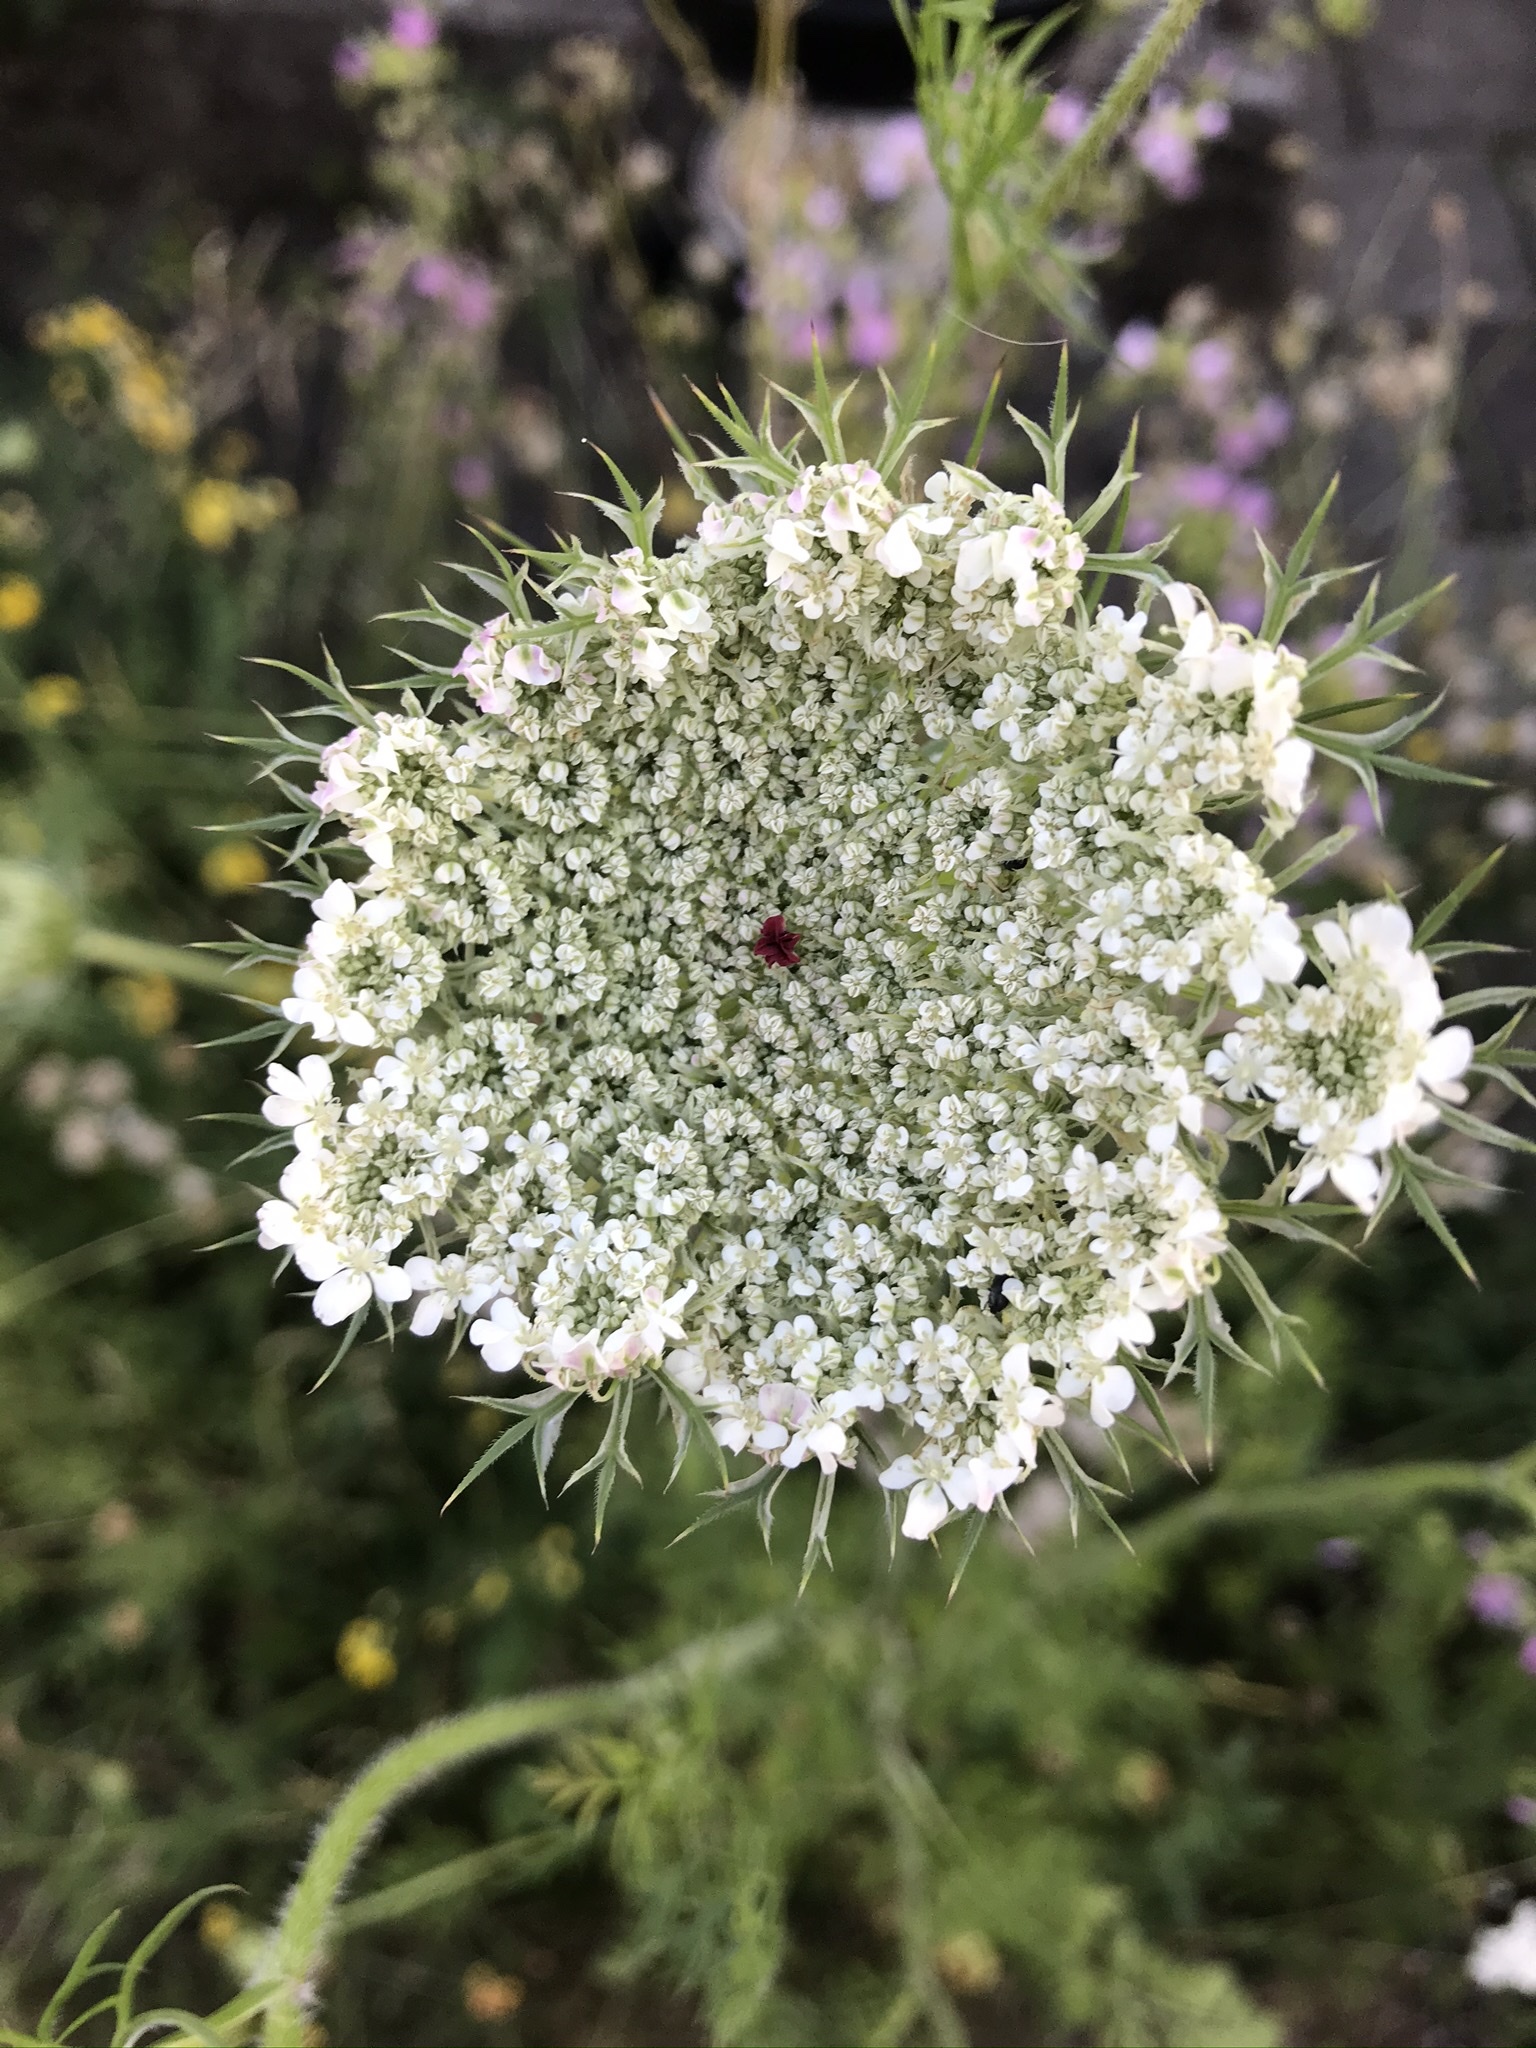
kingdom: Plantae
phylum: Tracheophyta
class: Magnoliopsida
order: Apiales
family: Apiaceae
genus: Daucus
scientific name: Daucus carota
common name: Wild carrot
